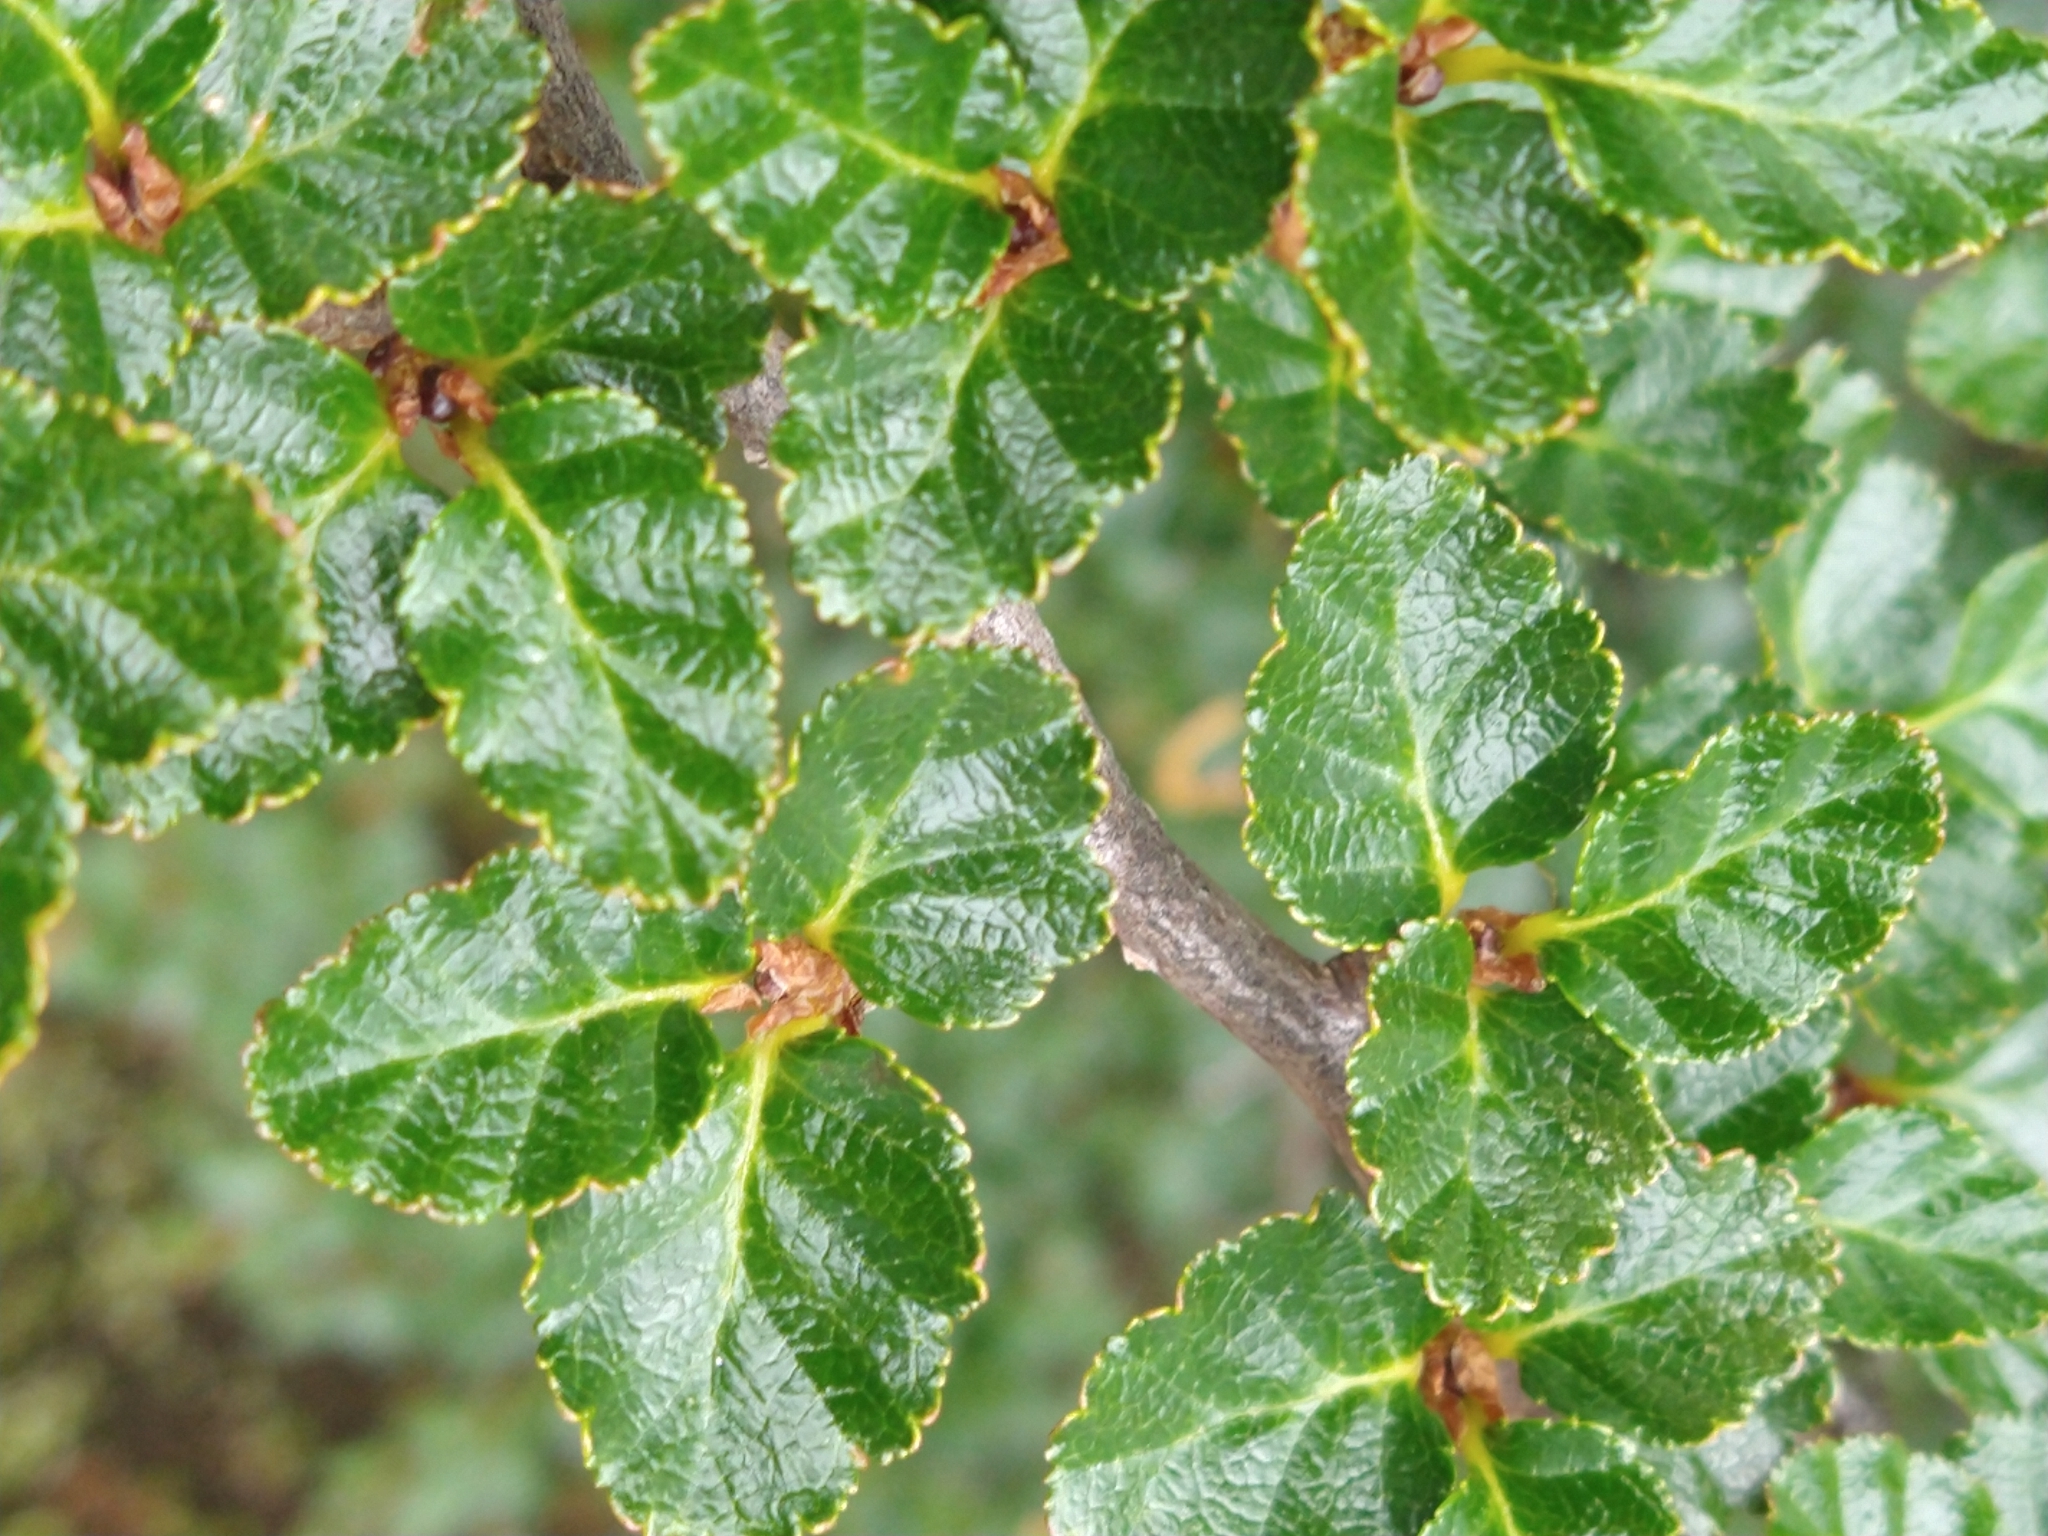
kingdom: Plantae
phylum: Tracheophyta
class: Magnoliopsida
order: Fagales
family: Nothofagaceae
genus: Nothofagus
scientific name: Nothofagus antarctica
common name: Antarctic beech
